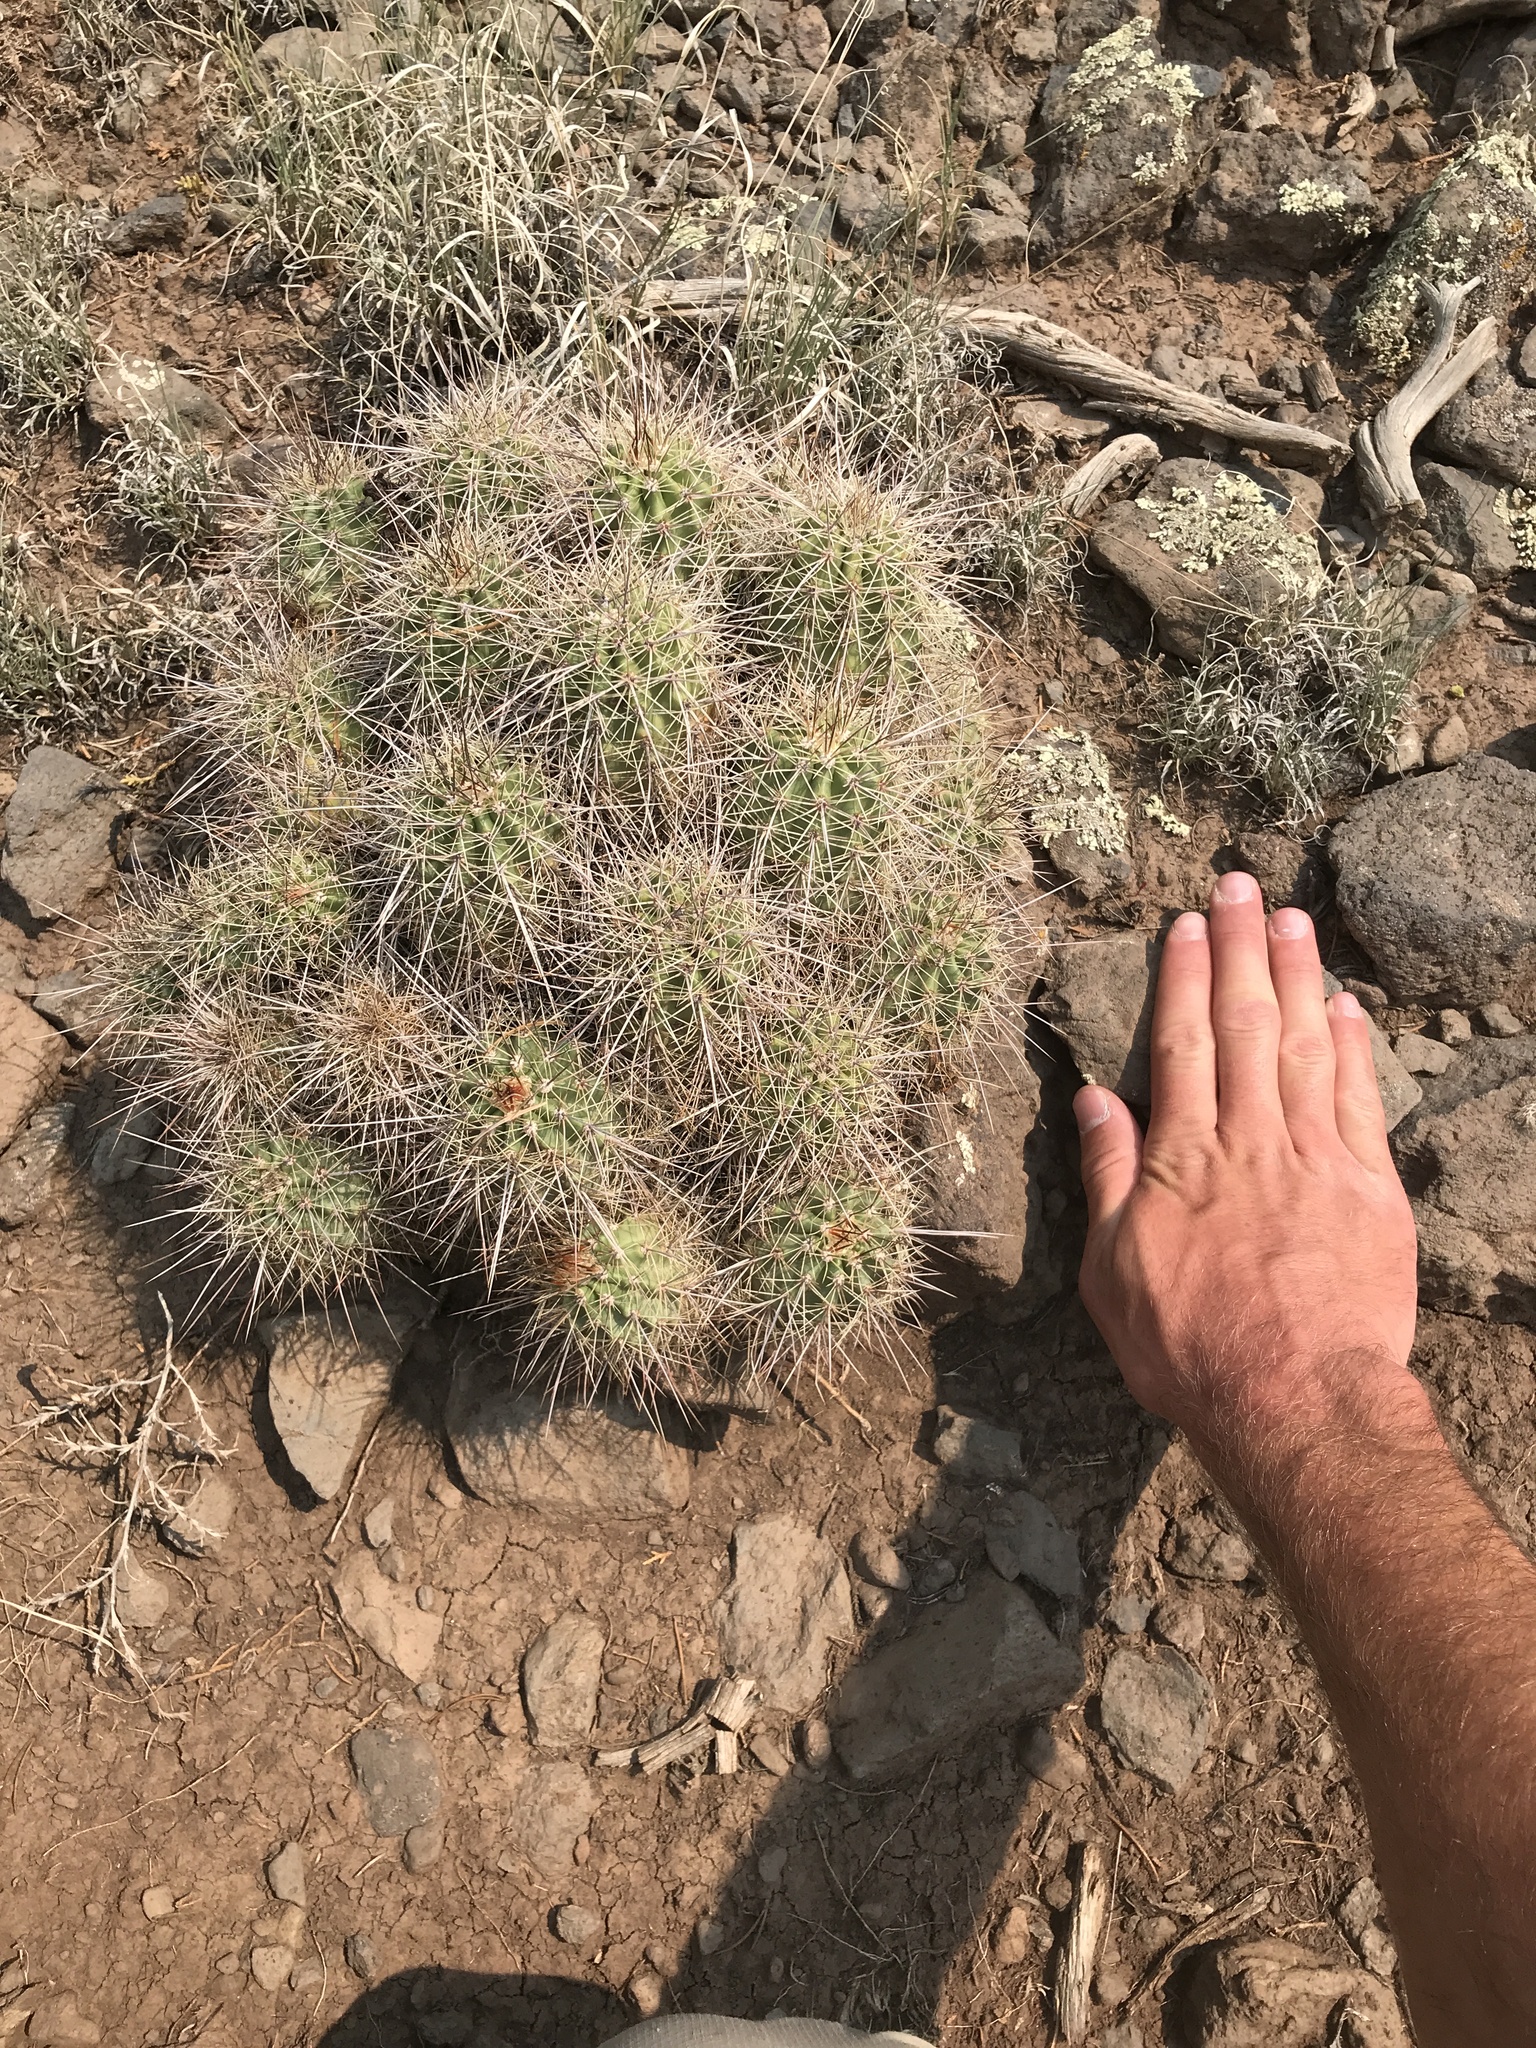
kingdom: Plantae
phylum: Tracheophyta
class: Magnoliopsida
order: Caryophyllales
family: Cactaceae
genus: Echinocereus
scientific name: Echinocereus coccineus
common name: Scarlet hedgehog cactus
